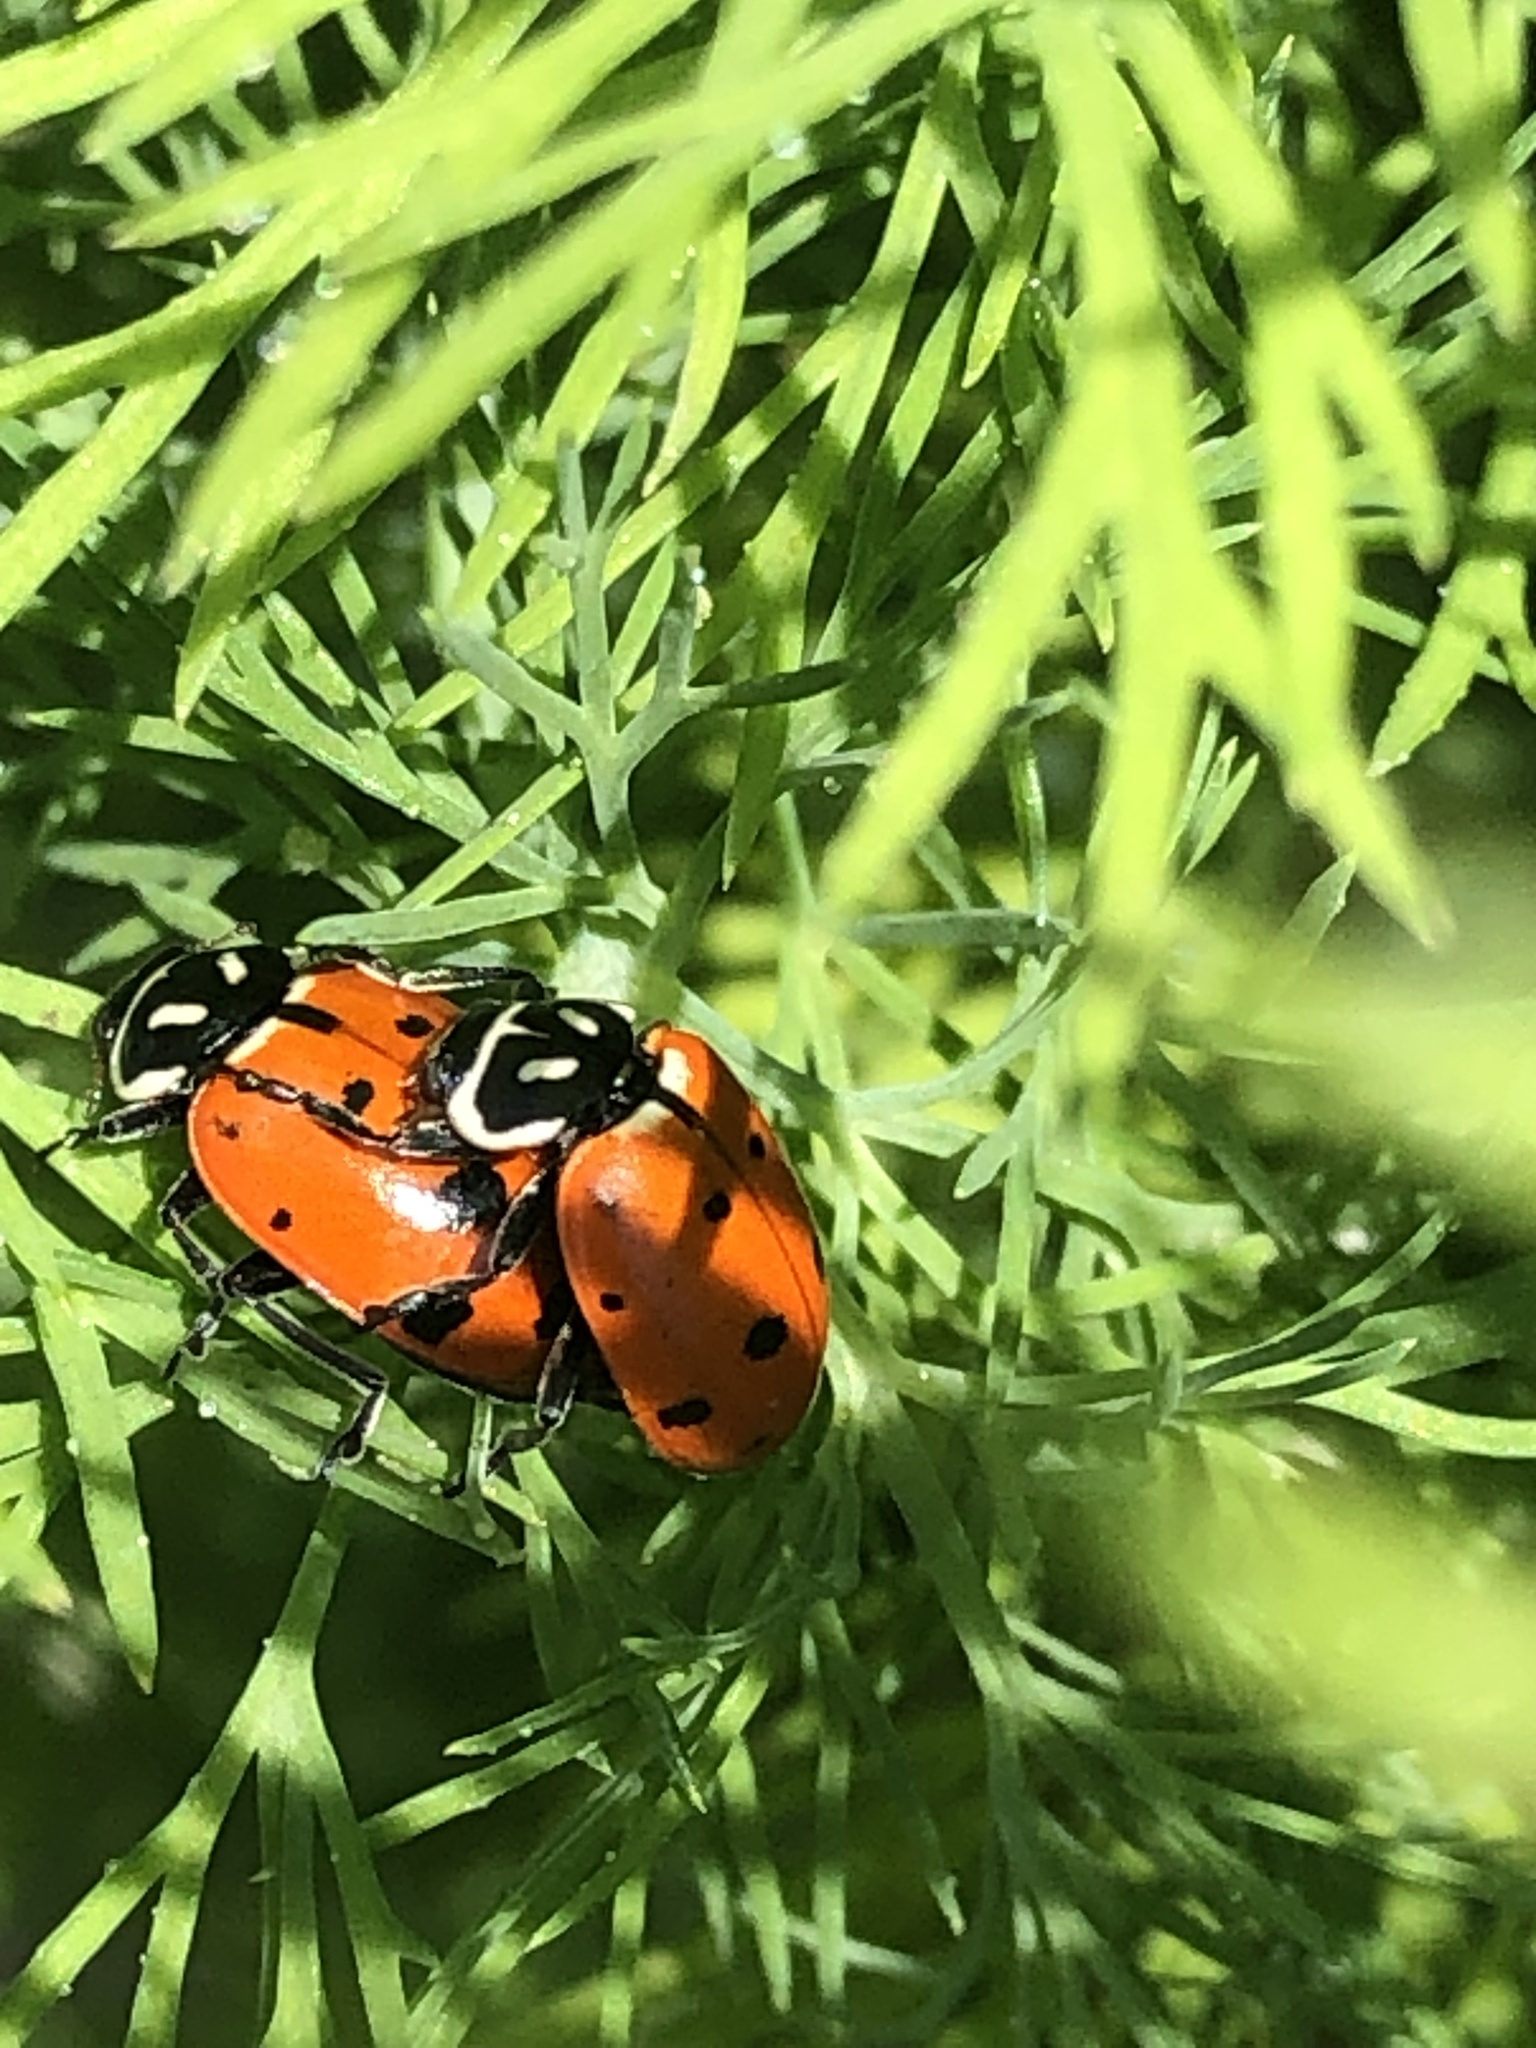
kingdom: Animalia
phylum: Arthropoda
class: Insecta
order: Coleoptera
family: Coccinellidae
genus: Hippodamia
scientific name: Hippodamia convergens
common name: Convergent lady beetle
